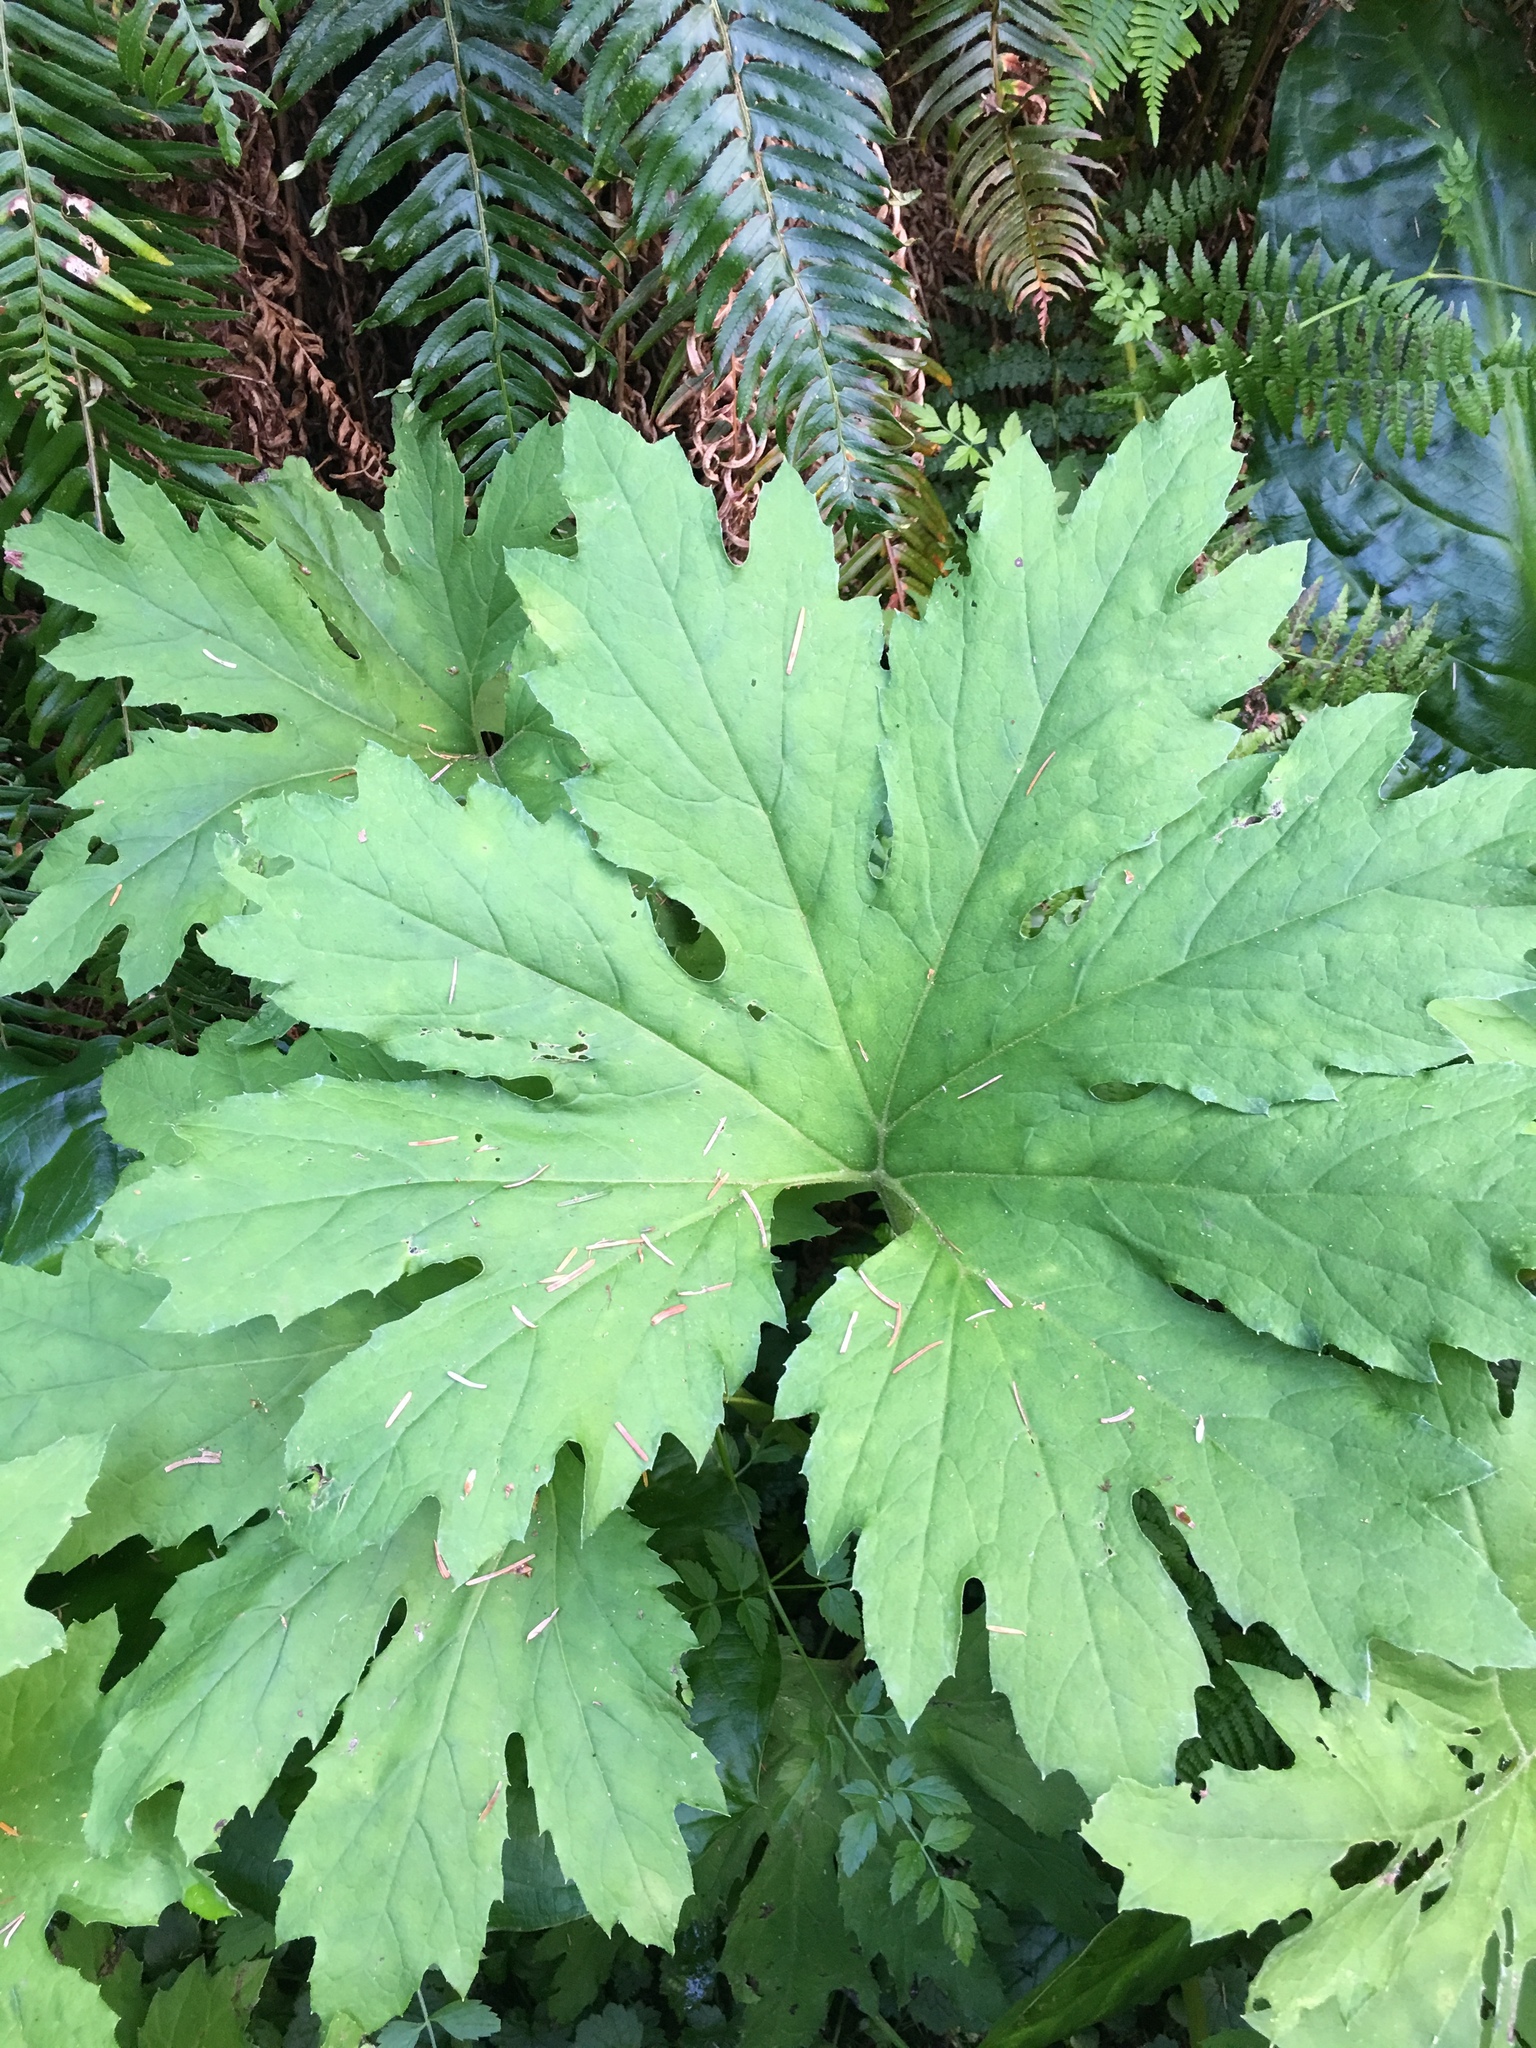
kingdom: Plantae
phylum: Tracheophyta
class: Magnoliopsida
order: Asterales
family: Asteraceae
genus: Petasites
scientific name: Petasites frigidus
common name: Arctic butterbur
